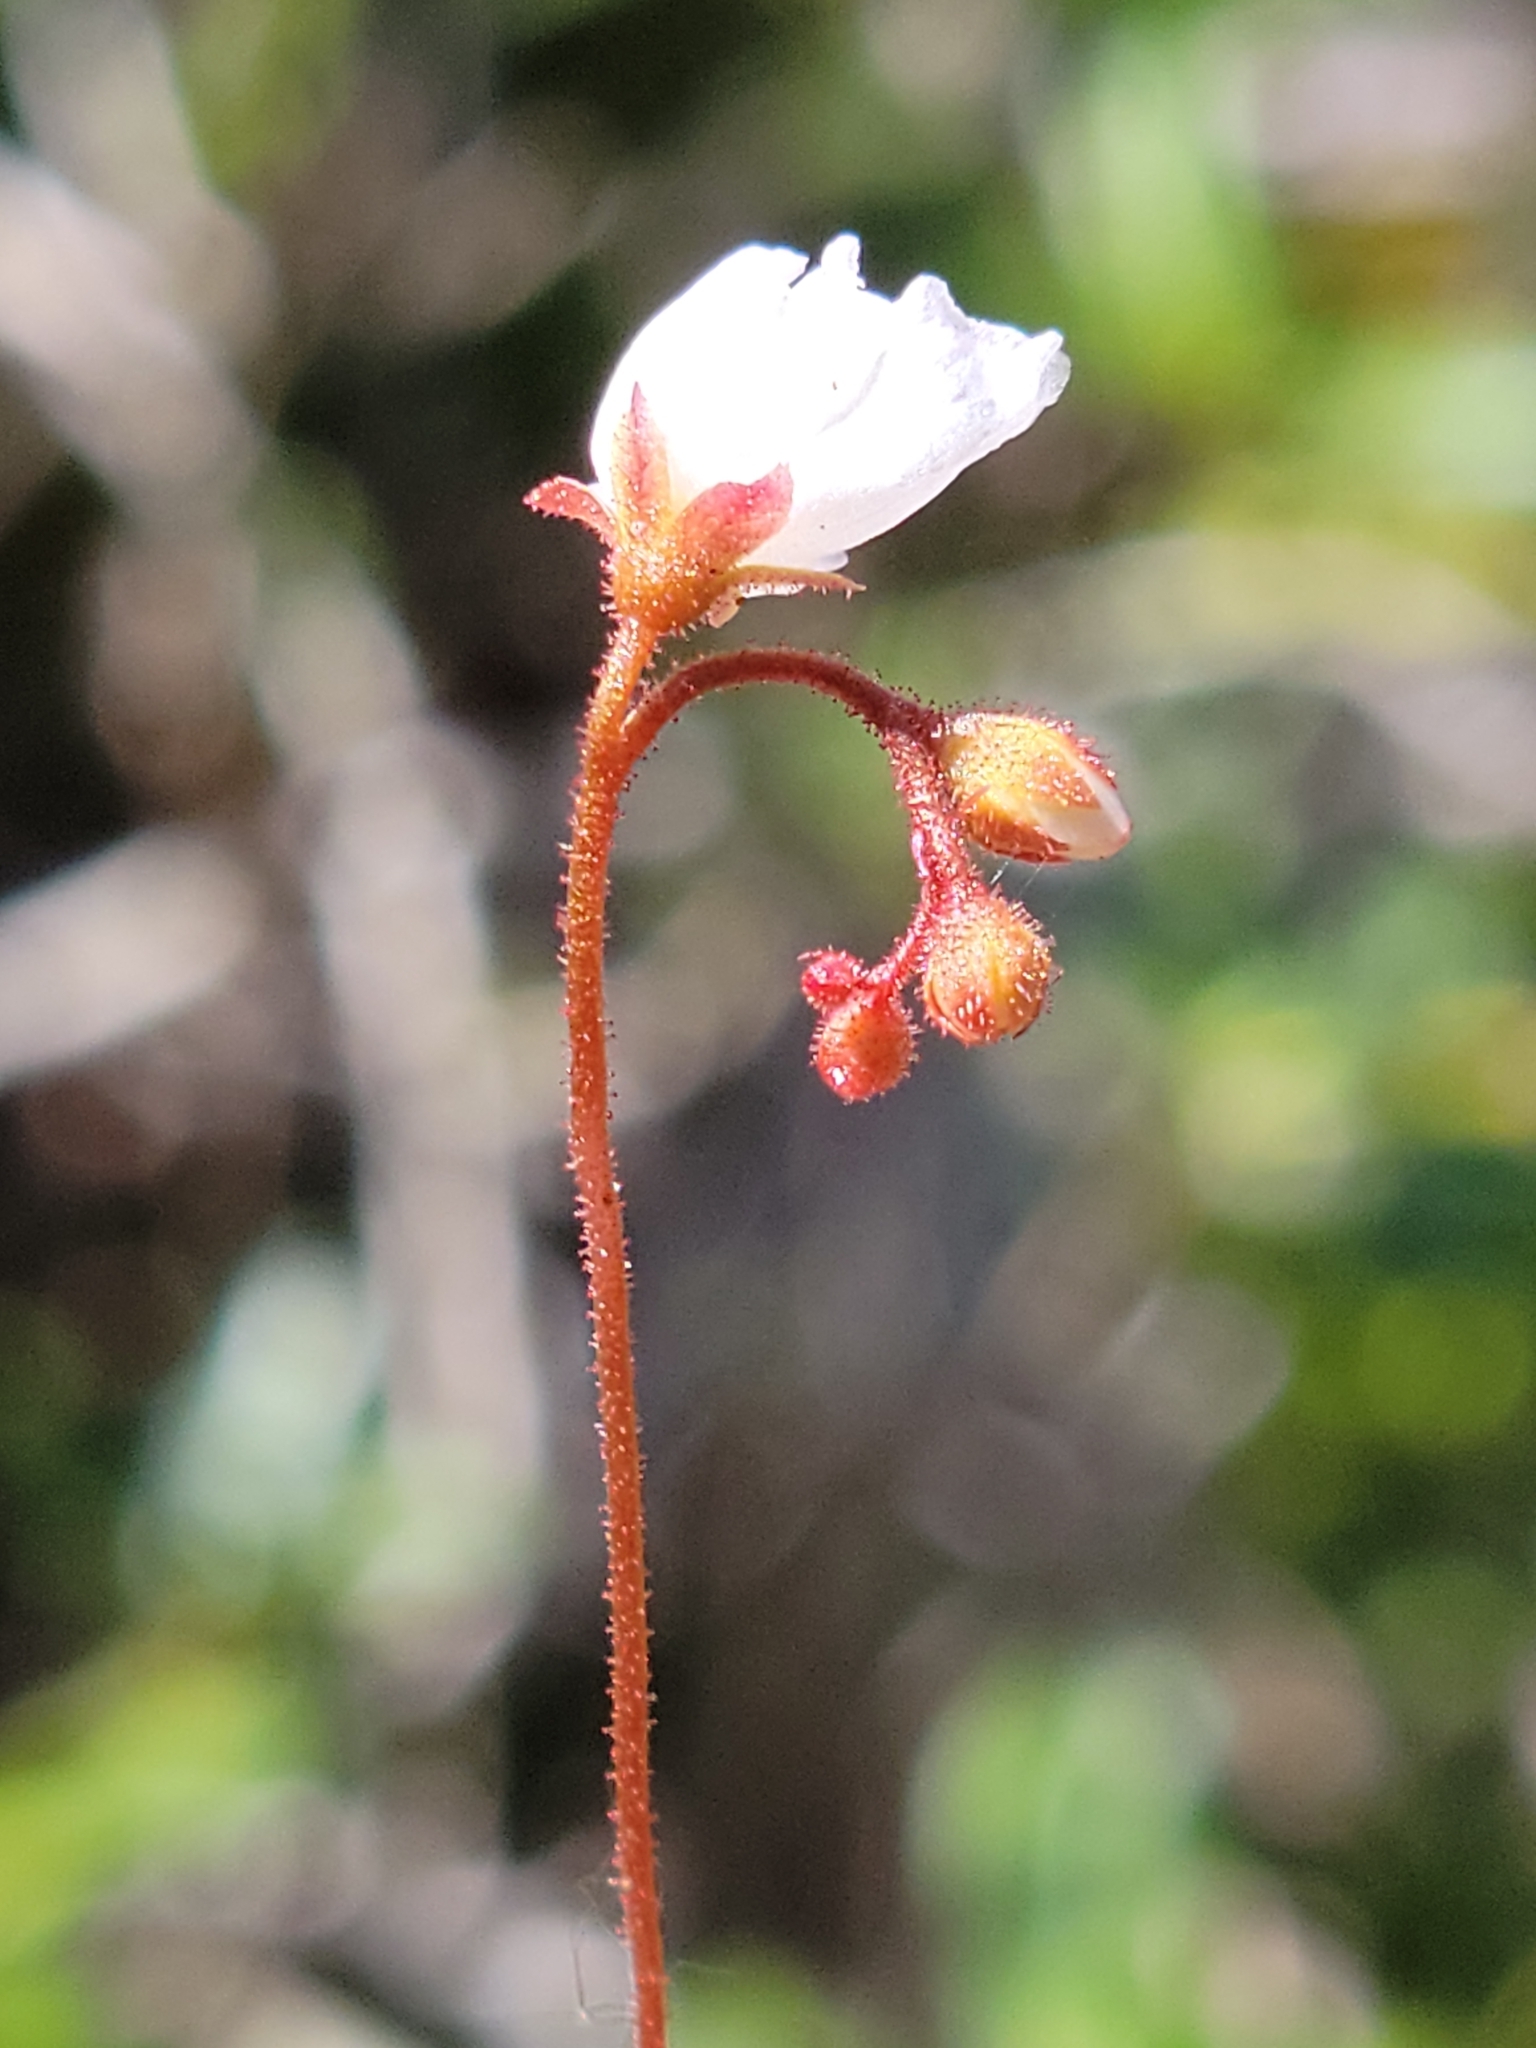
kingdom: Plantae
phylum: Tracheophyta
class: Magnoliopsida
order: Caryophyllales
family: Droseraceae
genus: Drosera
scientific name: Drosera brevifolia
